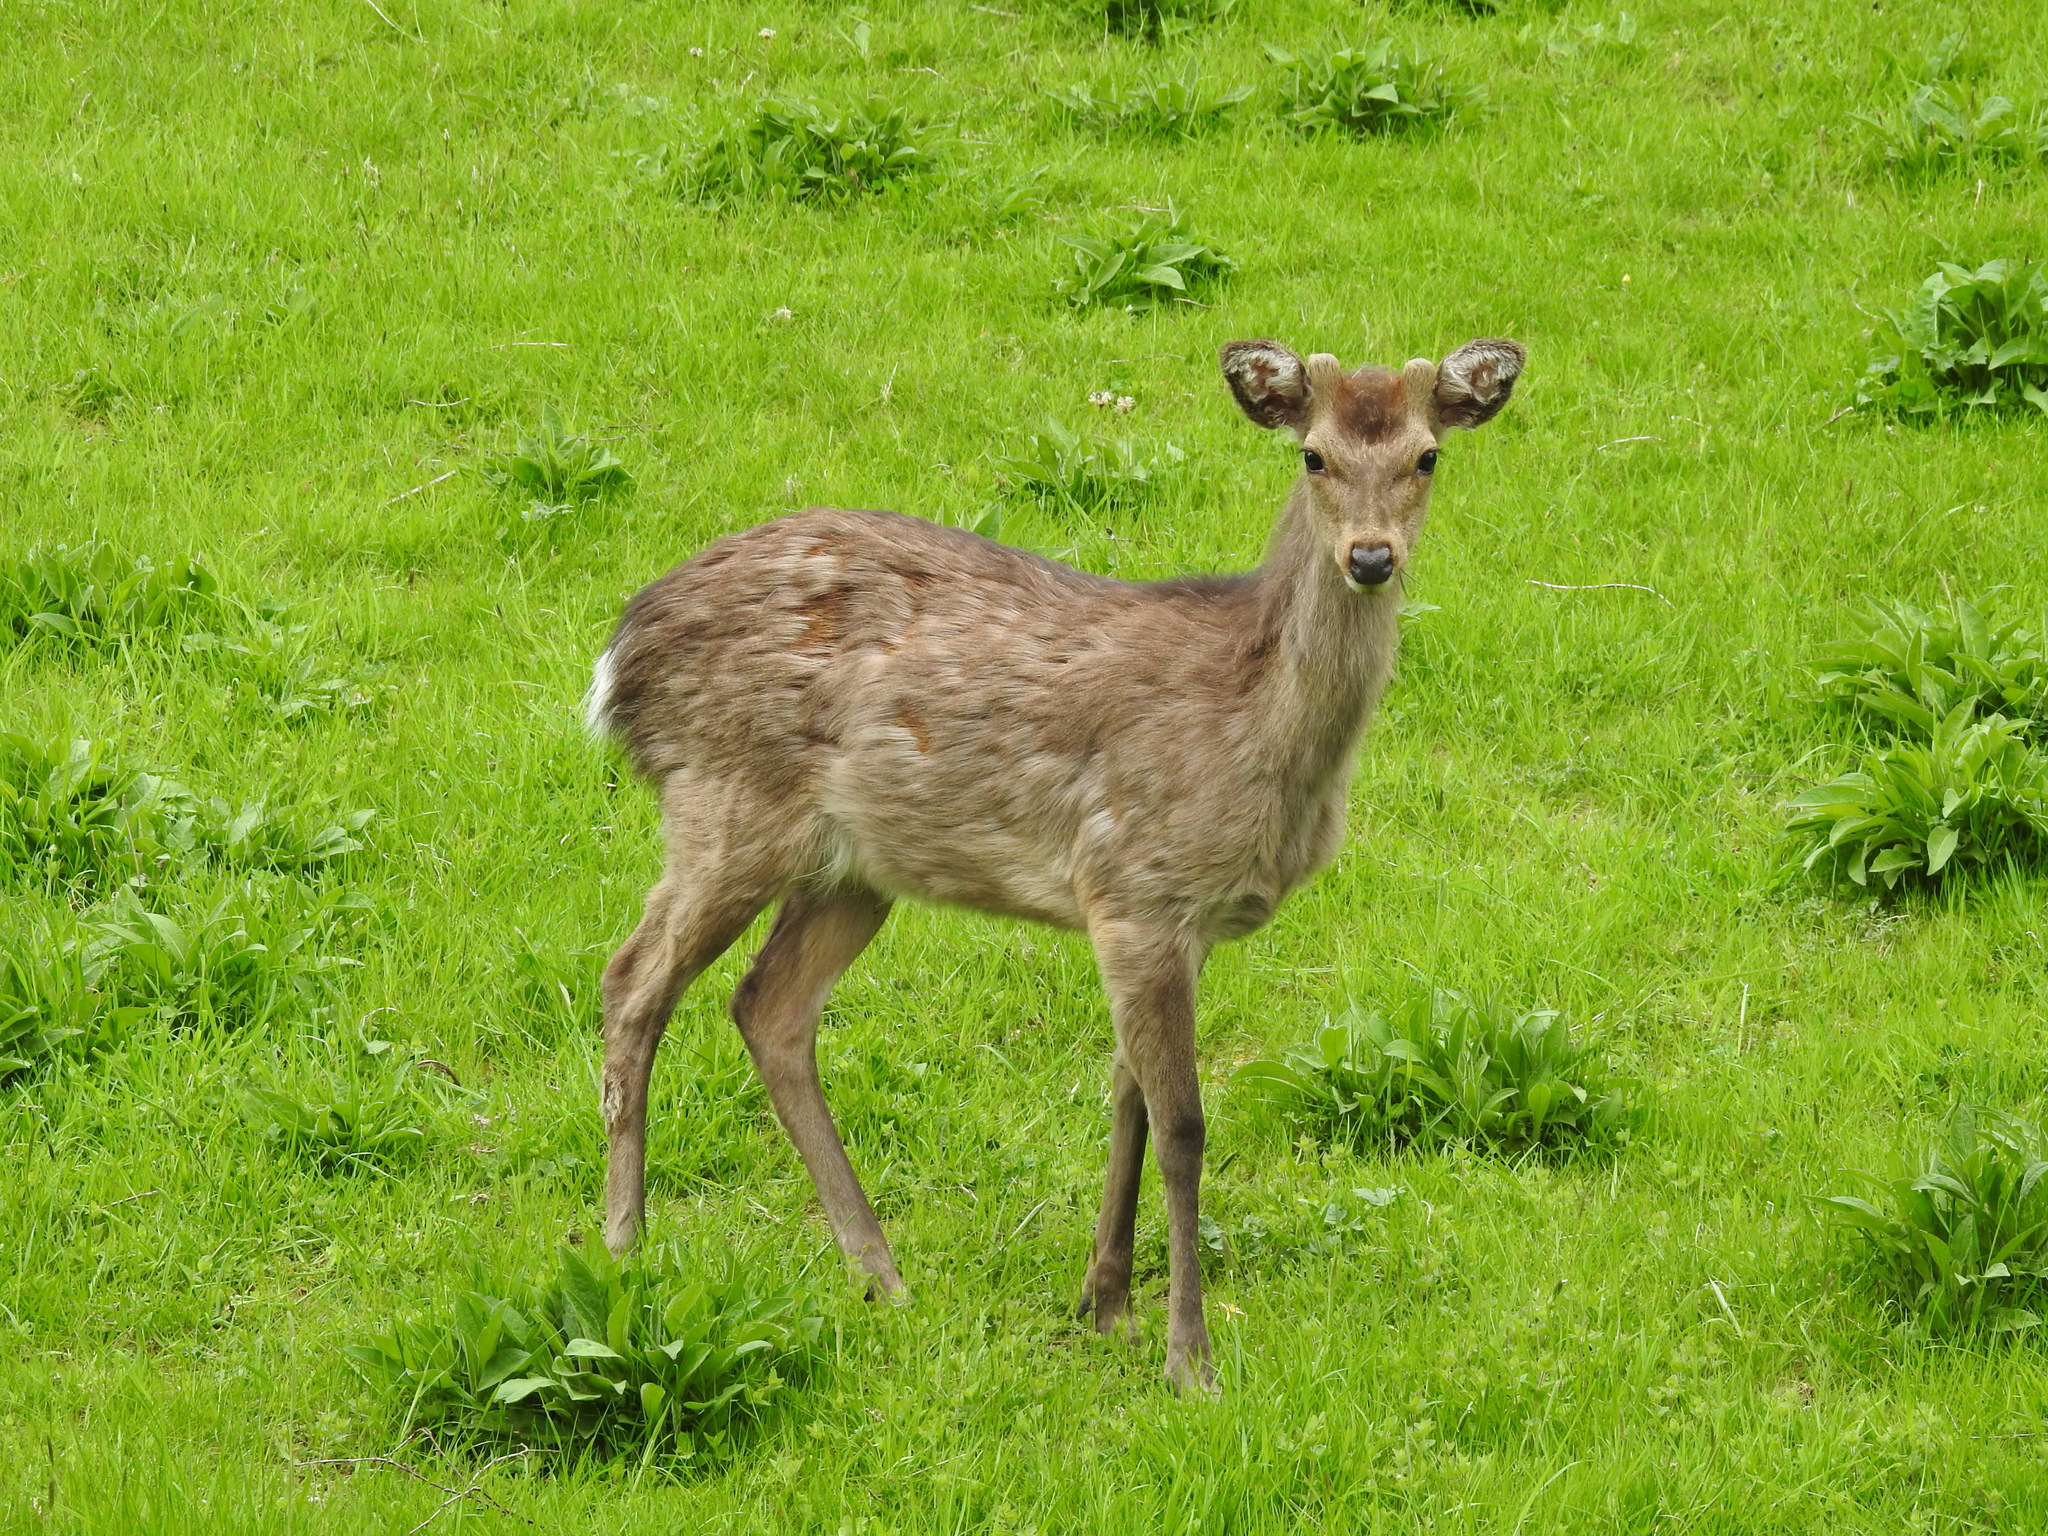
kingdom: Animalia
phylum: Chordata
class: Mammalia
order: Artiodactyla
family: Cervidae
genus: Cervus
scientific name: Cervus nippon
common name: Sika deer
